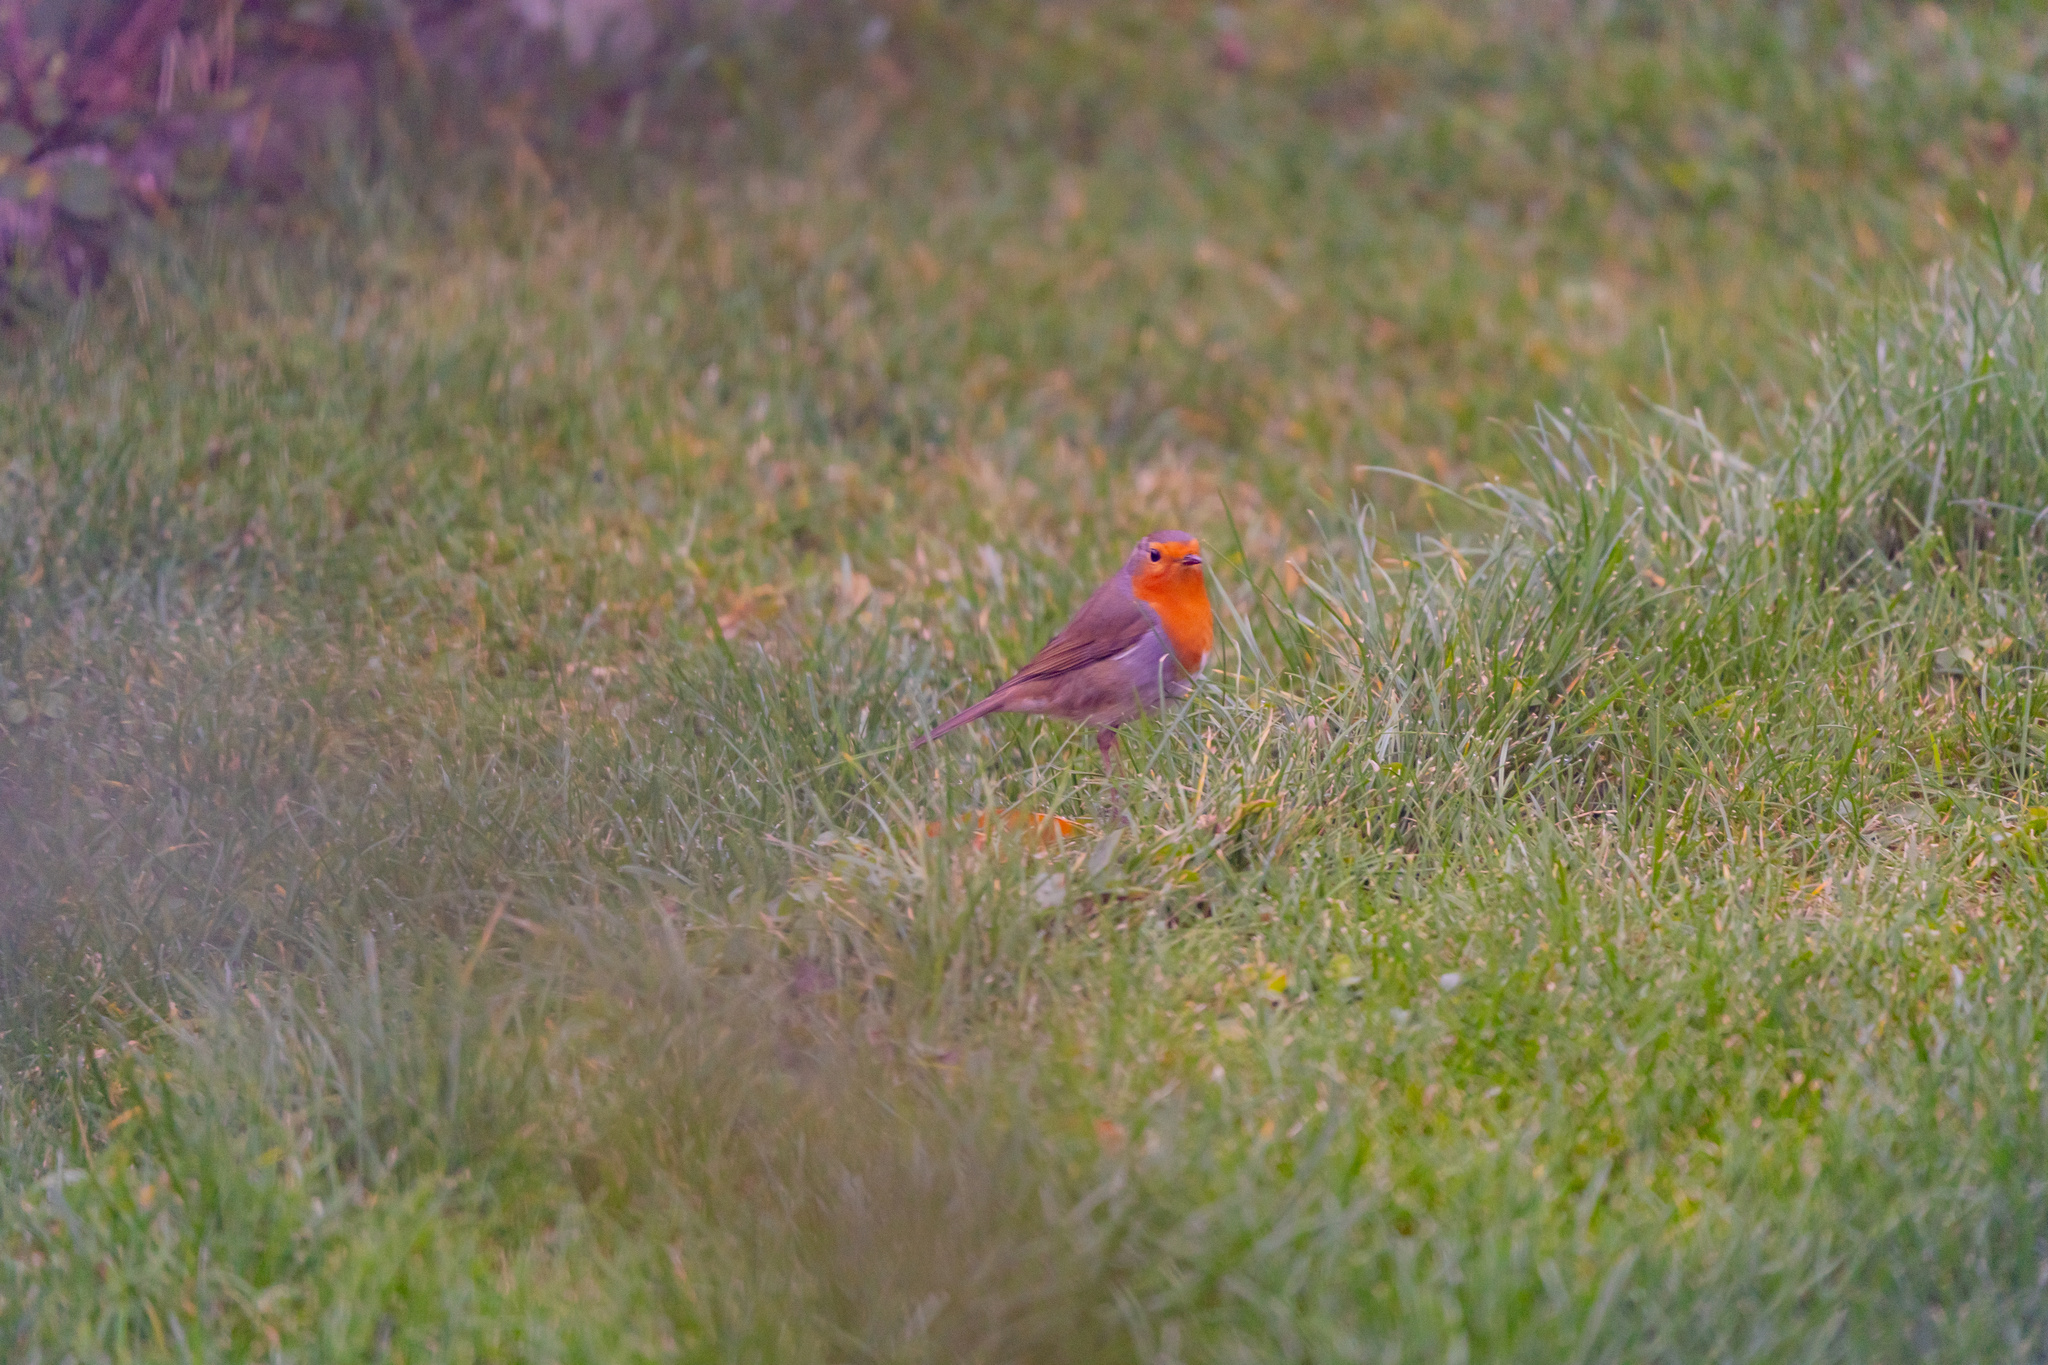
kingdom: Animalia
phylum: Chordata
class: Aves
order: Passeriformes
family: Muscicapidae
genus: Erithacus
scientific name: Erithacus rubecula
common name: European robin
